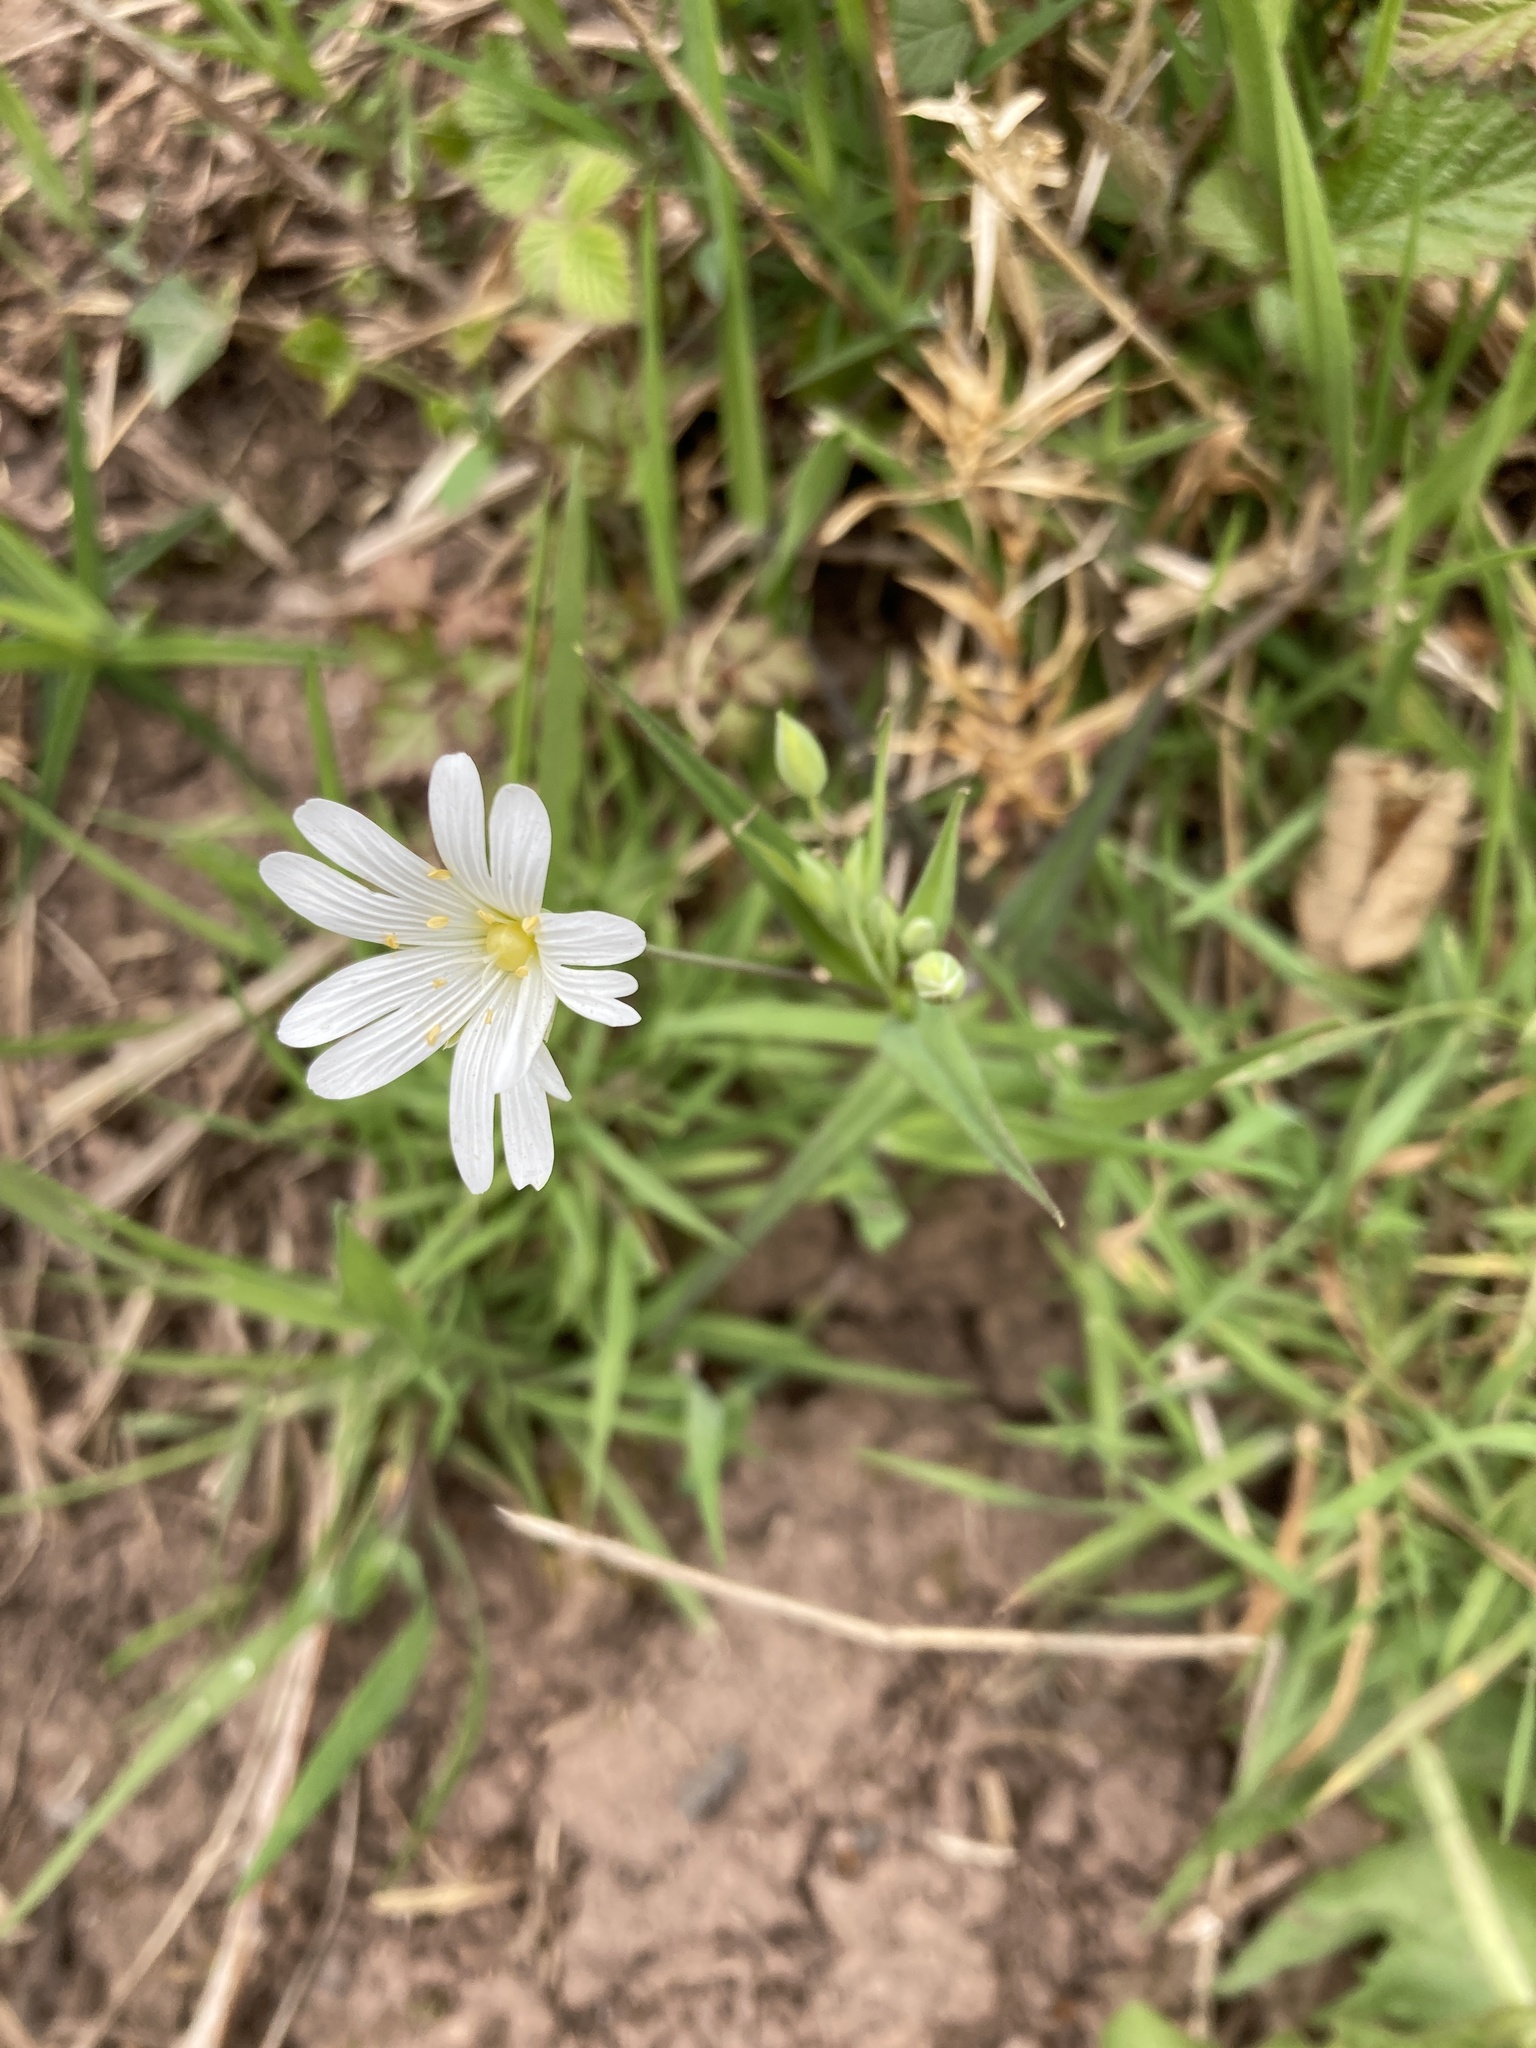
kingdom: Plantae
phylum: Tracheophyta
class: Magnoliopsida
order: Caryophyllales
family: Caryophyllaceae
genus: Rabelera
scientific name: Rabelera holostea
